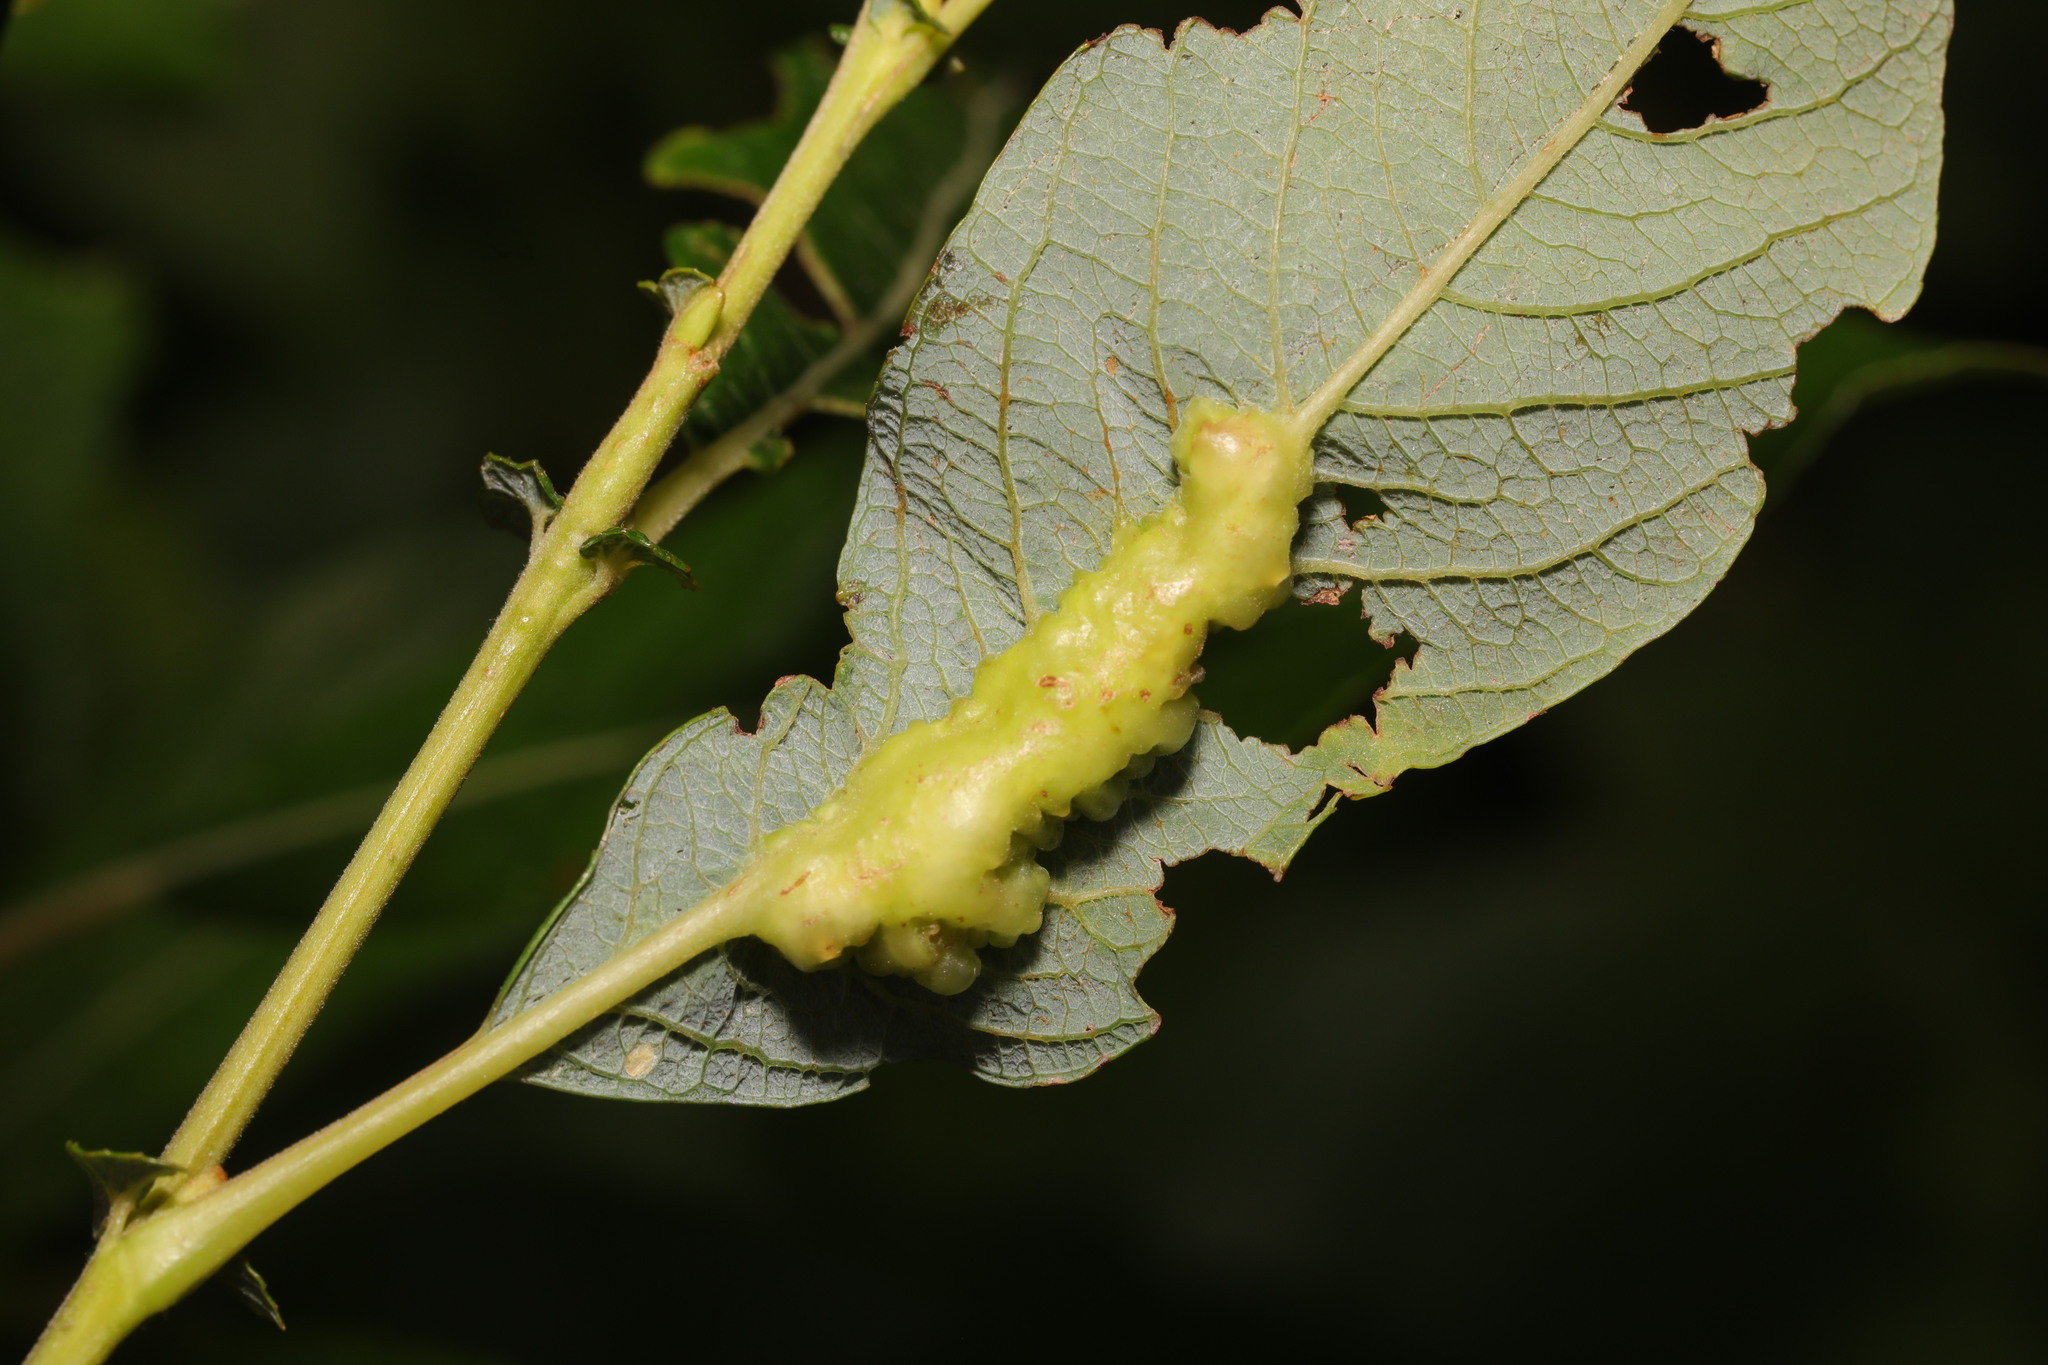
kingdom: Animalia
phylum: Arthropoda
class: Insecta
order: Diptera
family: Cecidomyiidae
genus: Iteomyia
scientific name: Iteomyia major
